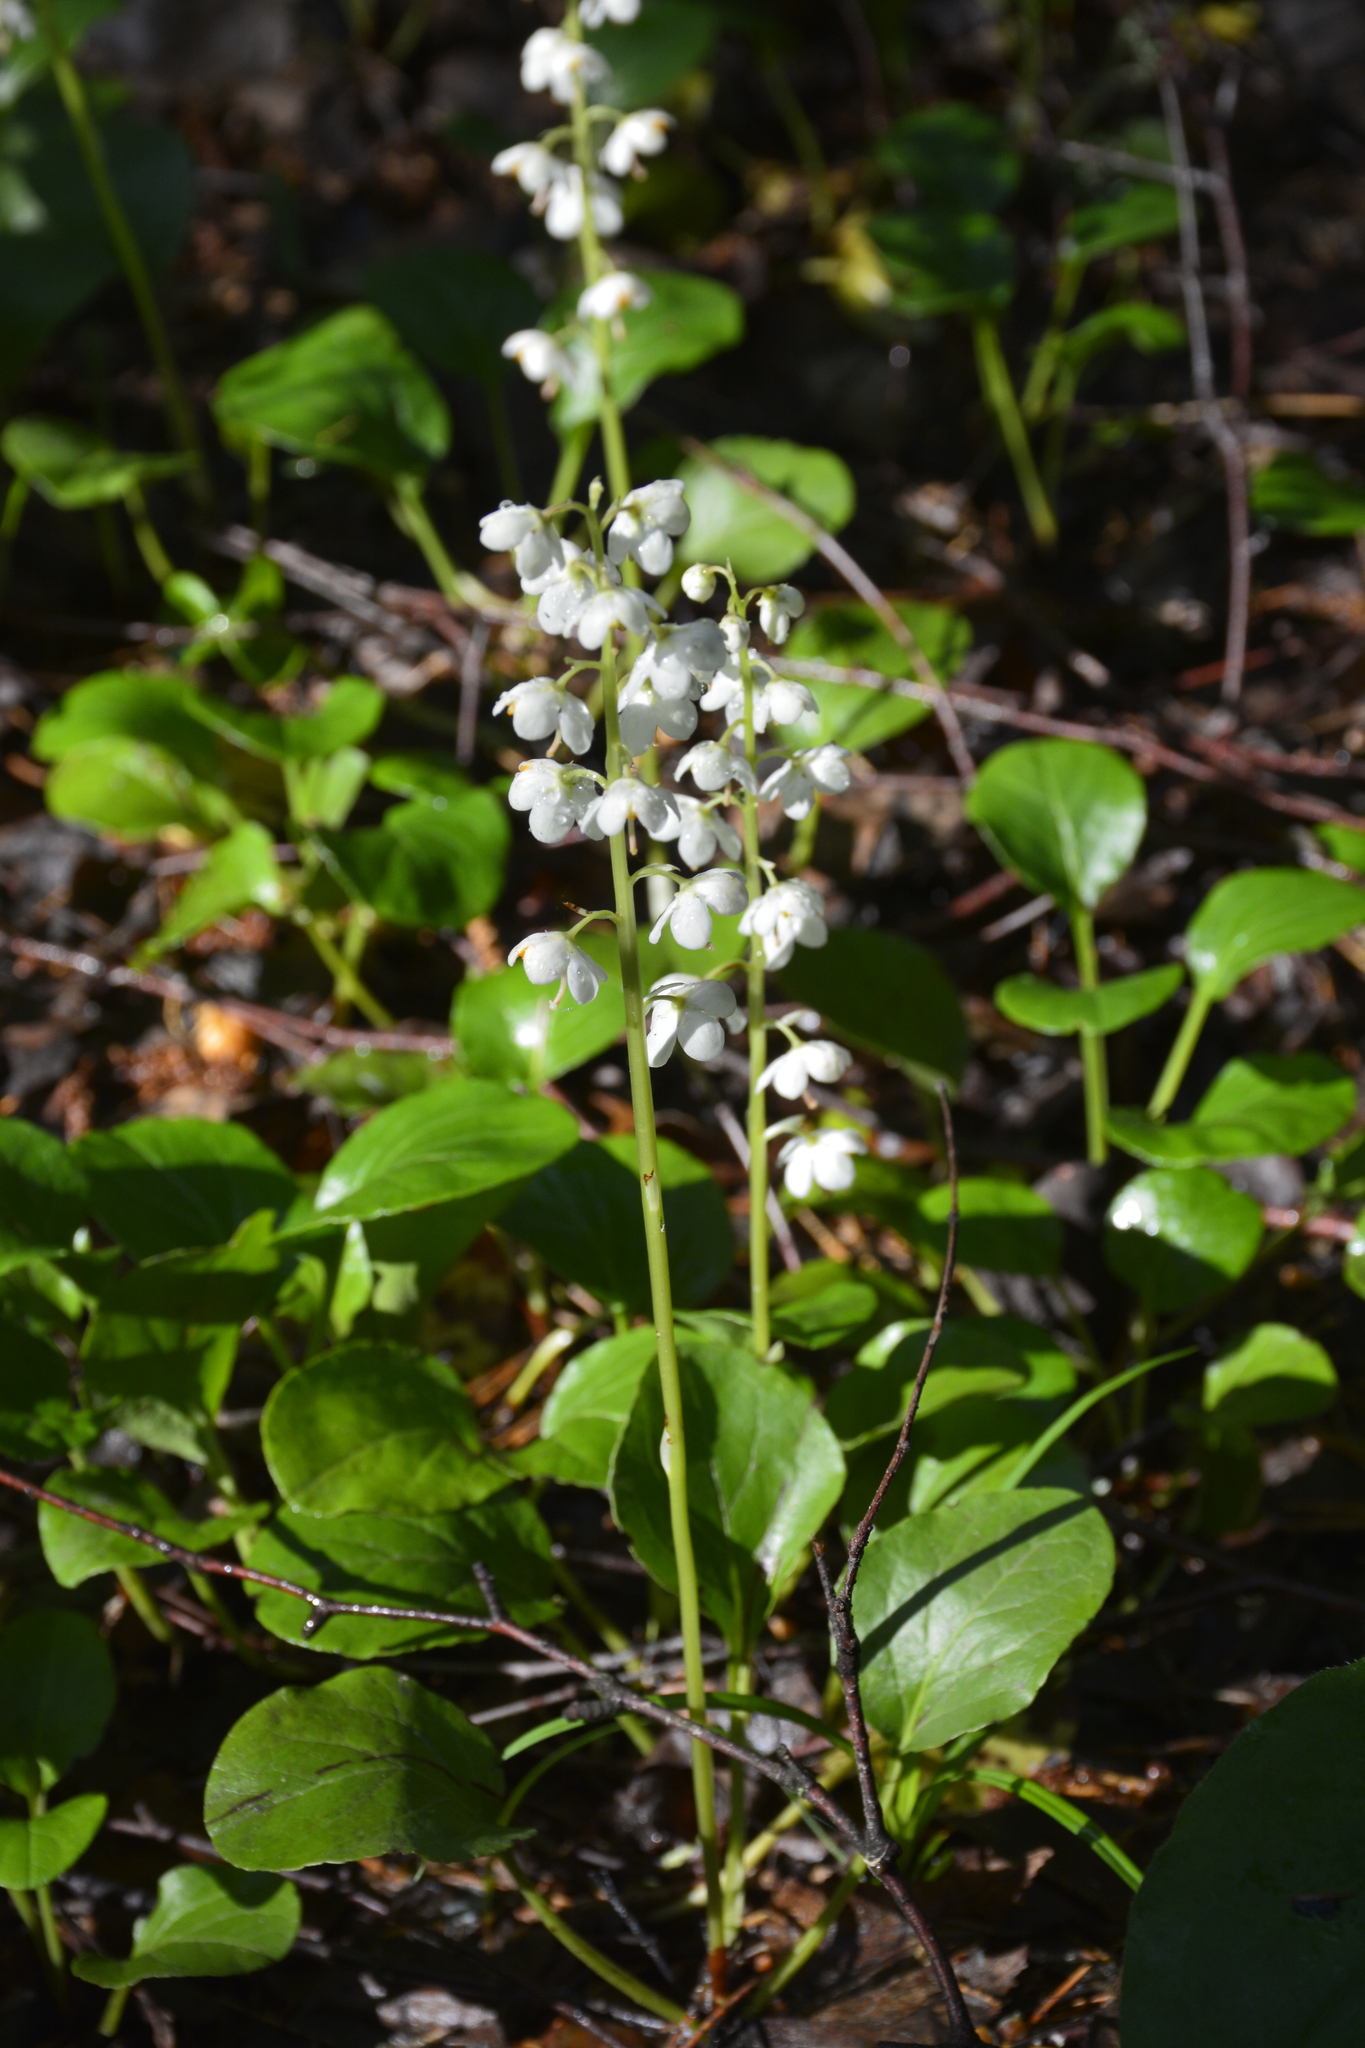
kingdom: Plantae
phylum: Tracheophyta
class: Magnoliopsida
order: Ericales
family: Ericaceae
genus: Pyrola
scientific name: Pyrola rotundifolia
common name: Round-leaved wintergreen
